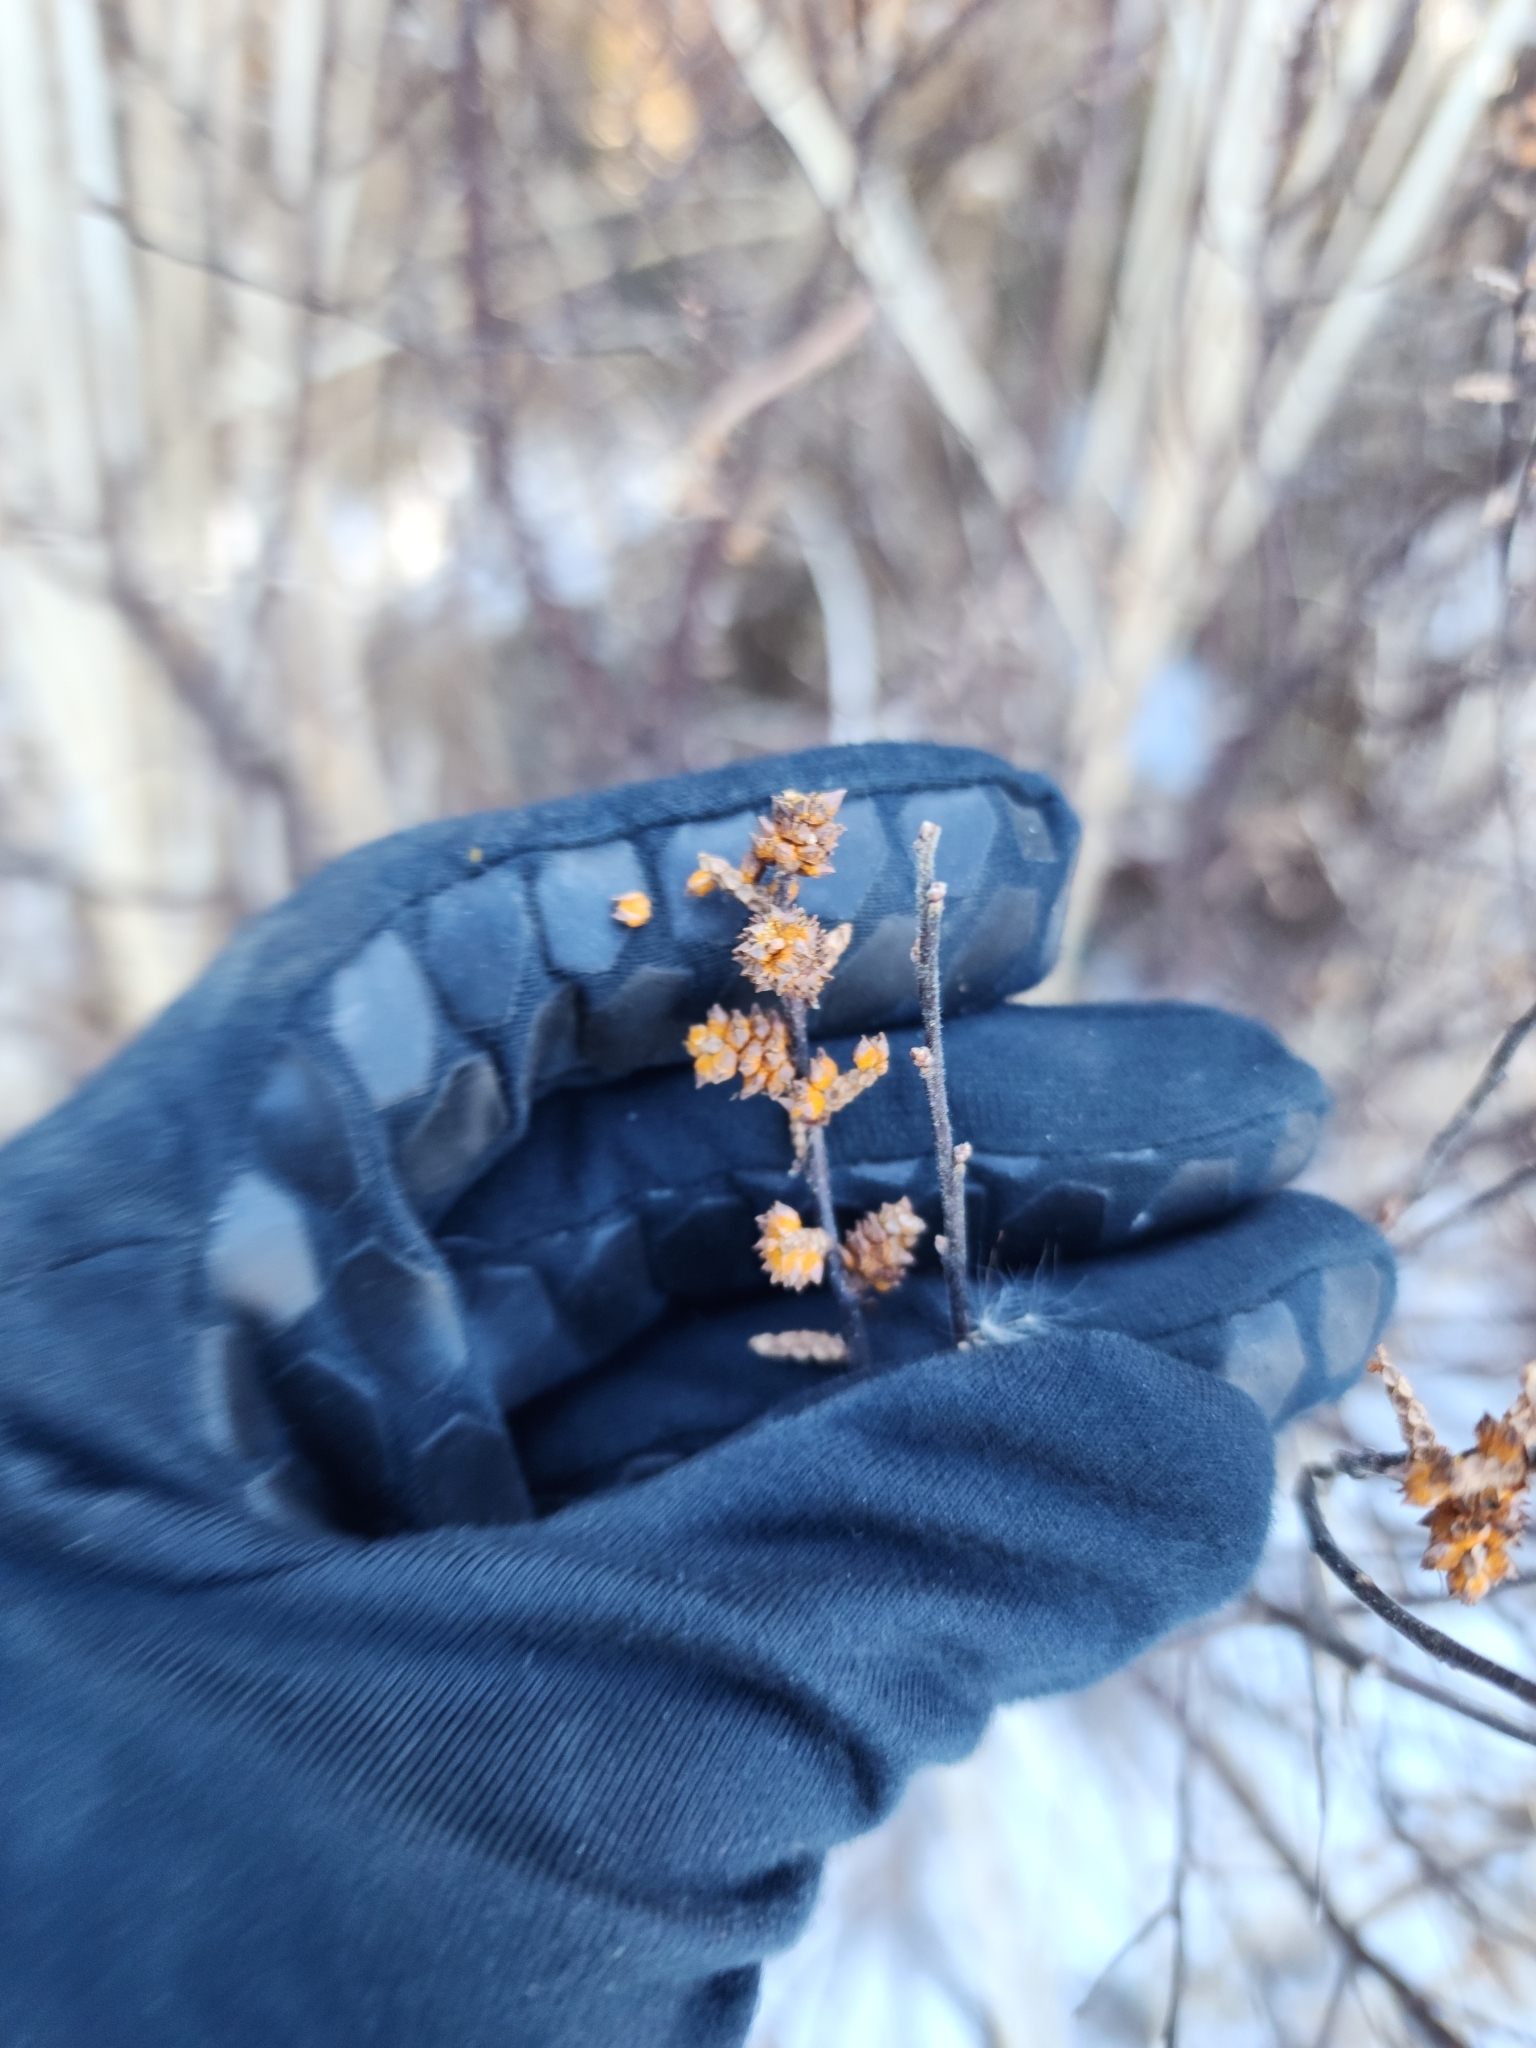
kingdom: Plantae
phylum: Tracheophyta
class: Magnoliopsida
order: Fagales
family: Myricaceae
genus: Myrica
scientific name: Myrica gale
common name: Sweet gale
